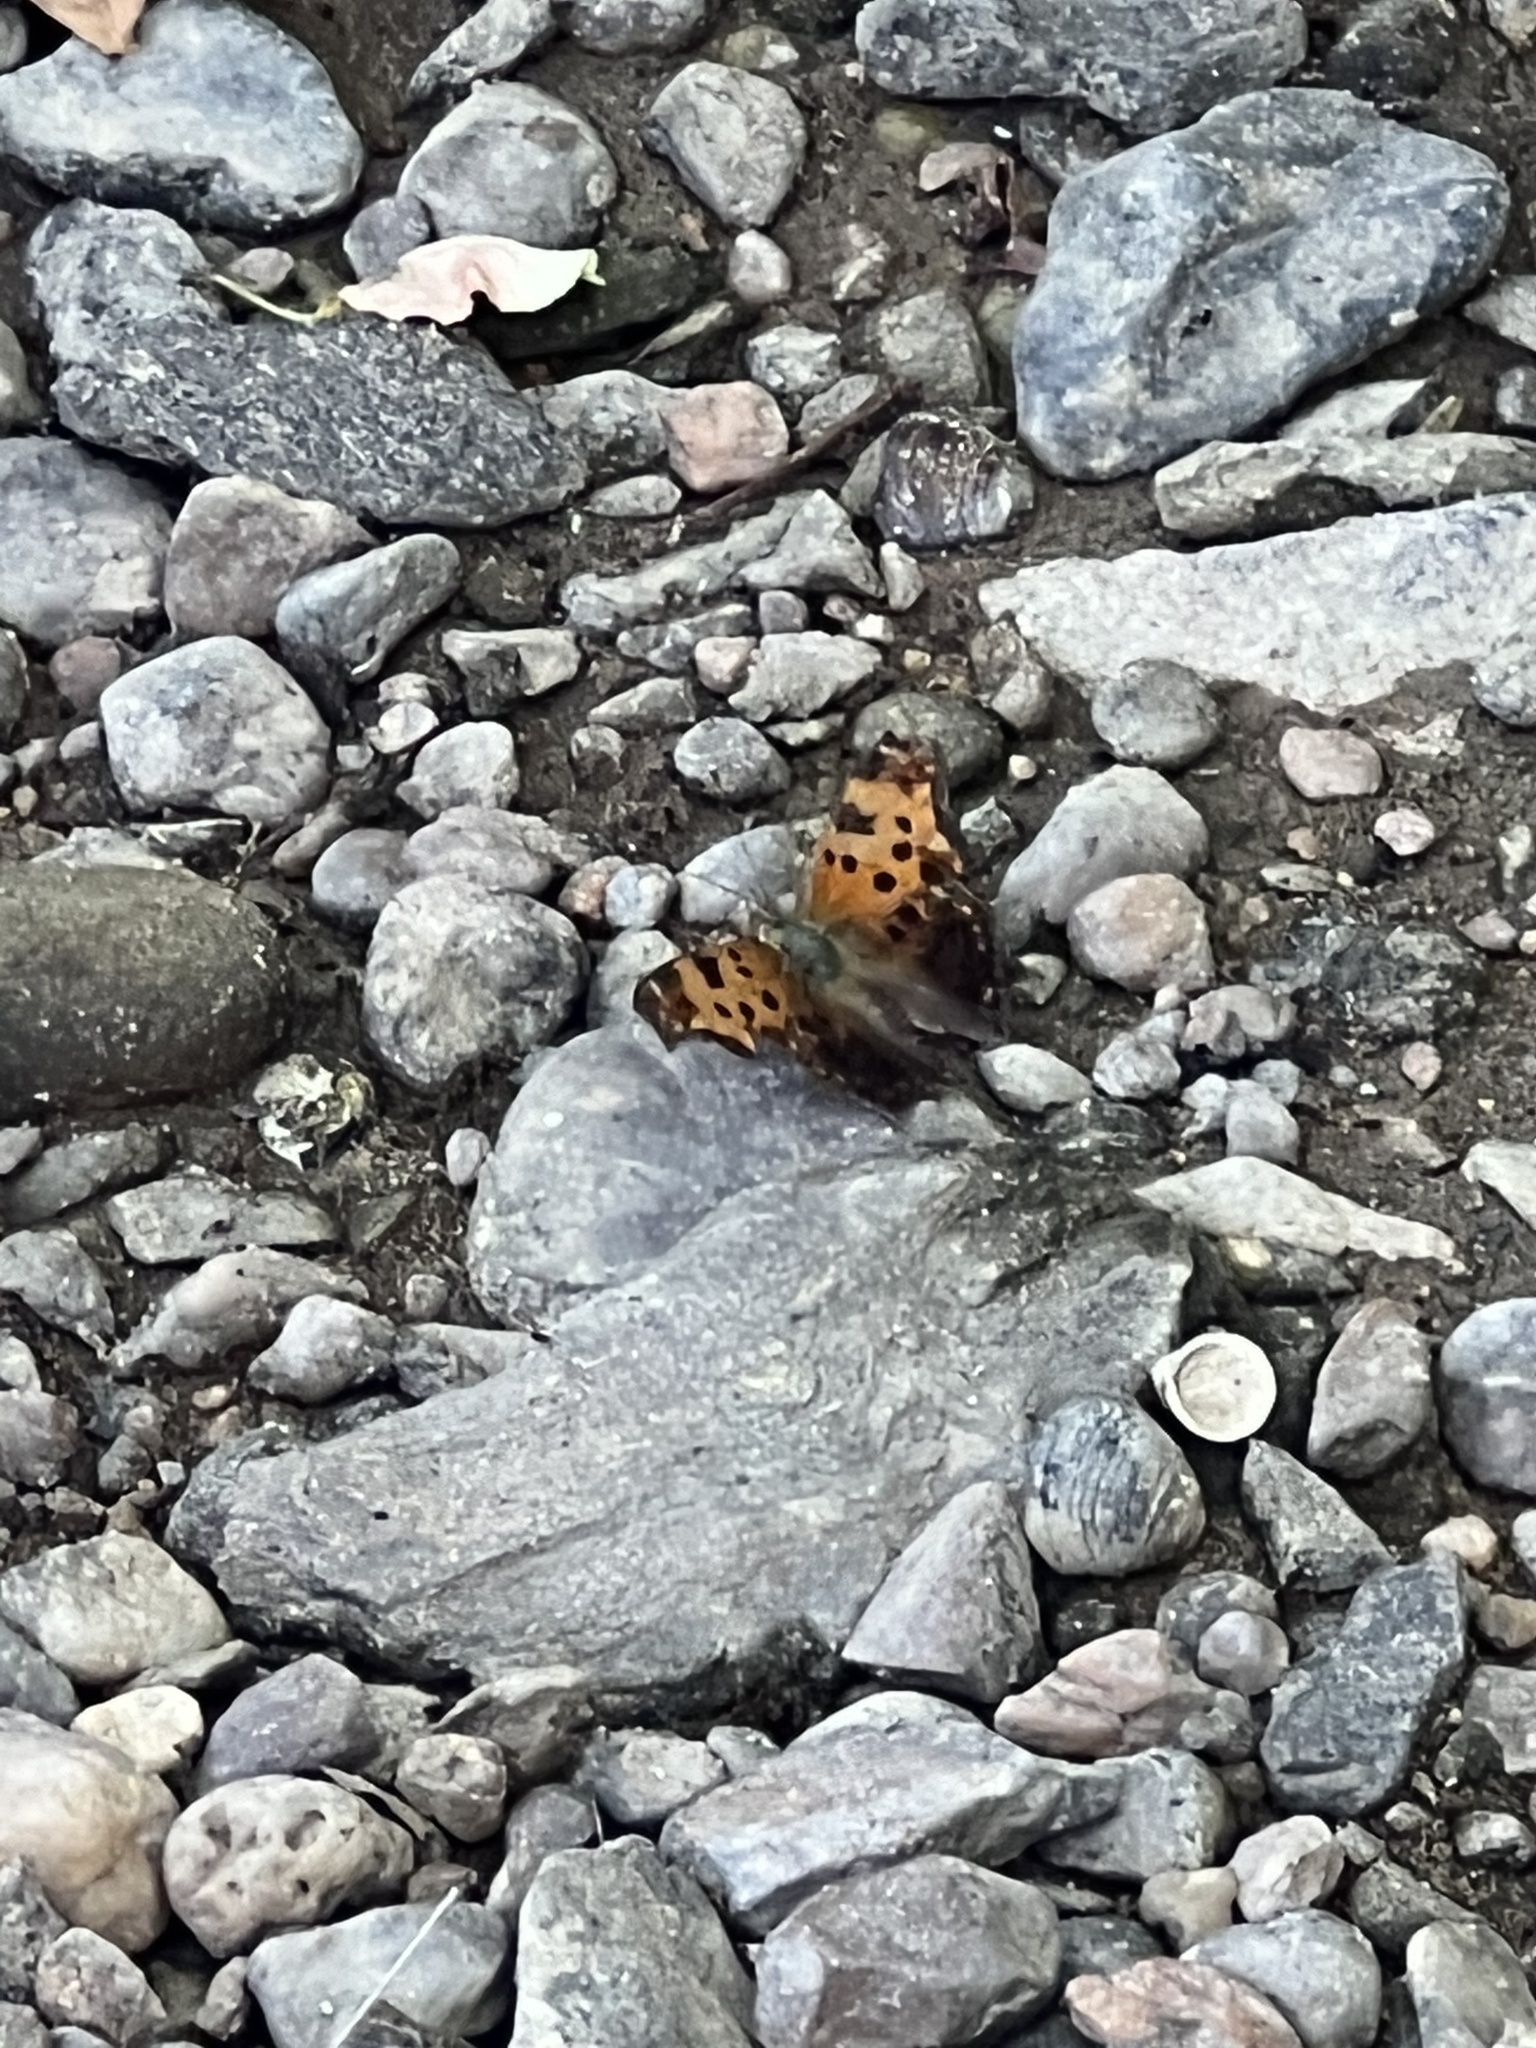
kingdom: Animalia
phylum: Arthropoda
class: Insecta
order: Lepidoptera
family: Nymphalidae
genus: Polygonia
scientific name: Polygonia comma
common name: Eastern comma
